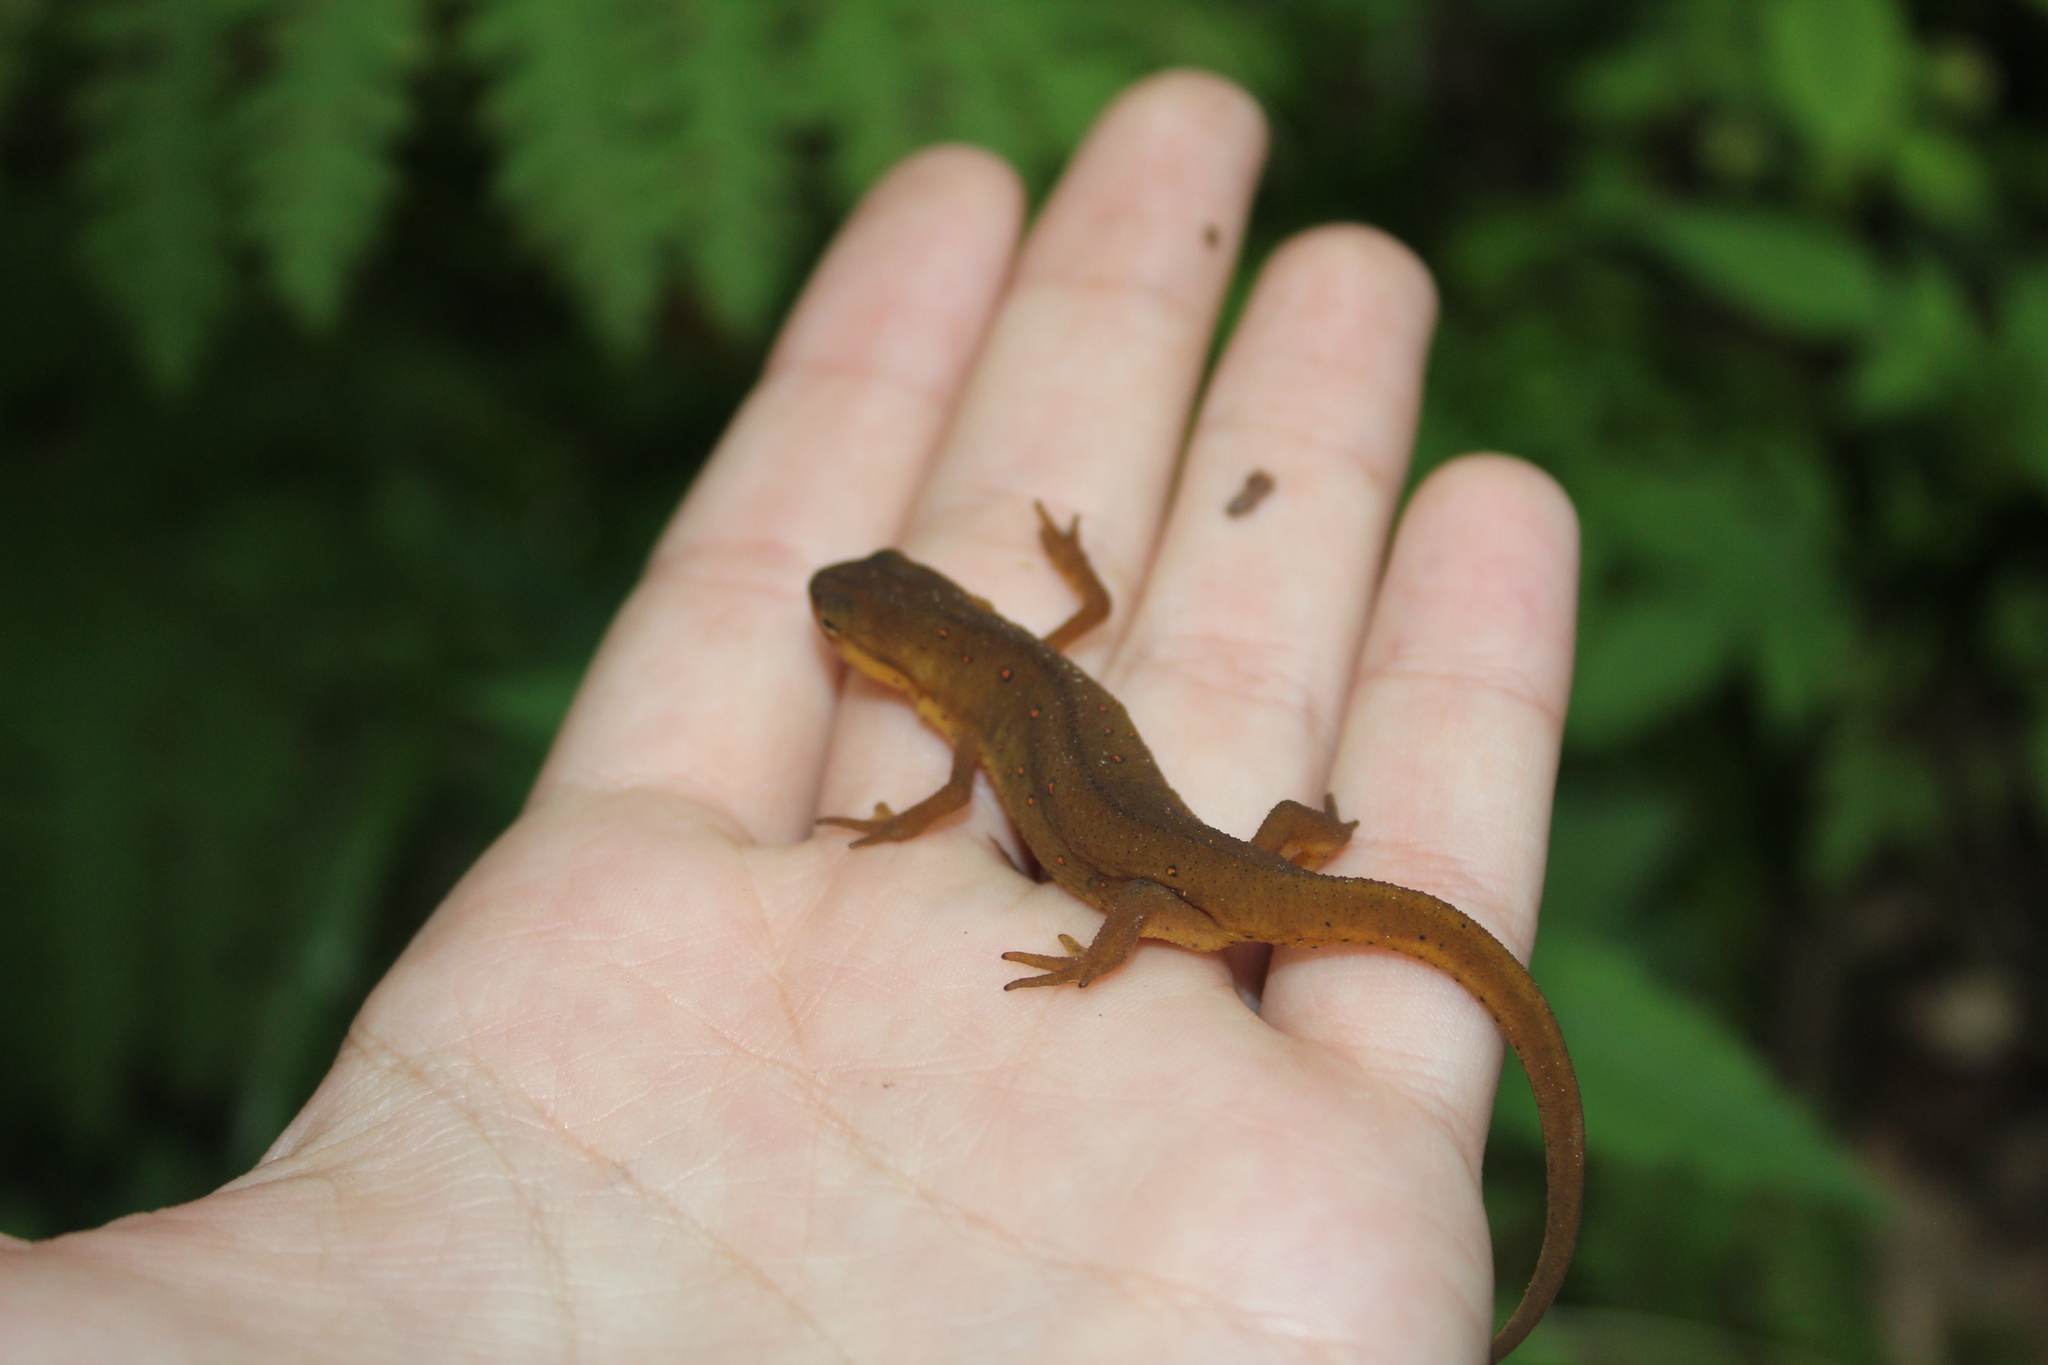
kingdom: Animalia
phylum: Chordata
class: Amphibia
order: Caudata
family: Salamandridae
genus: Notophthalmus
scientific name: Notophthalmus viridescens
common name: Eastern newt
